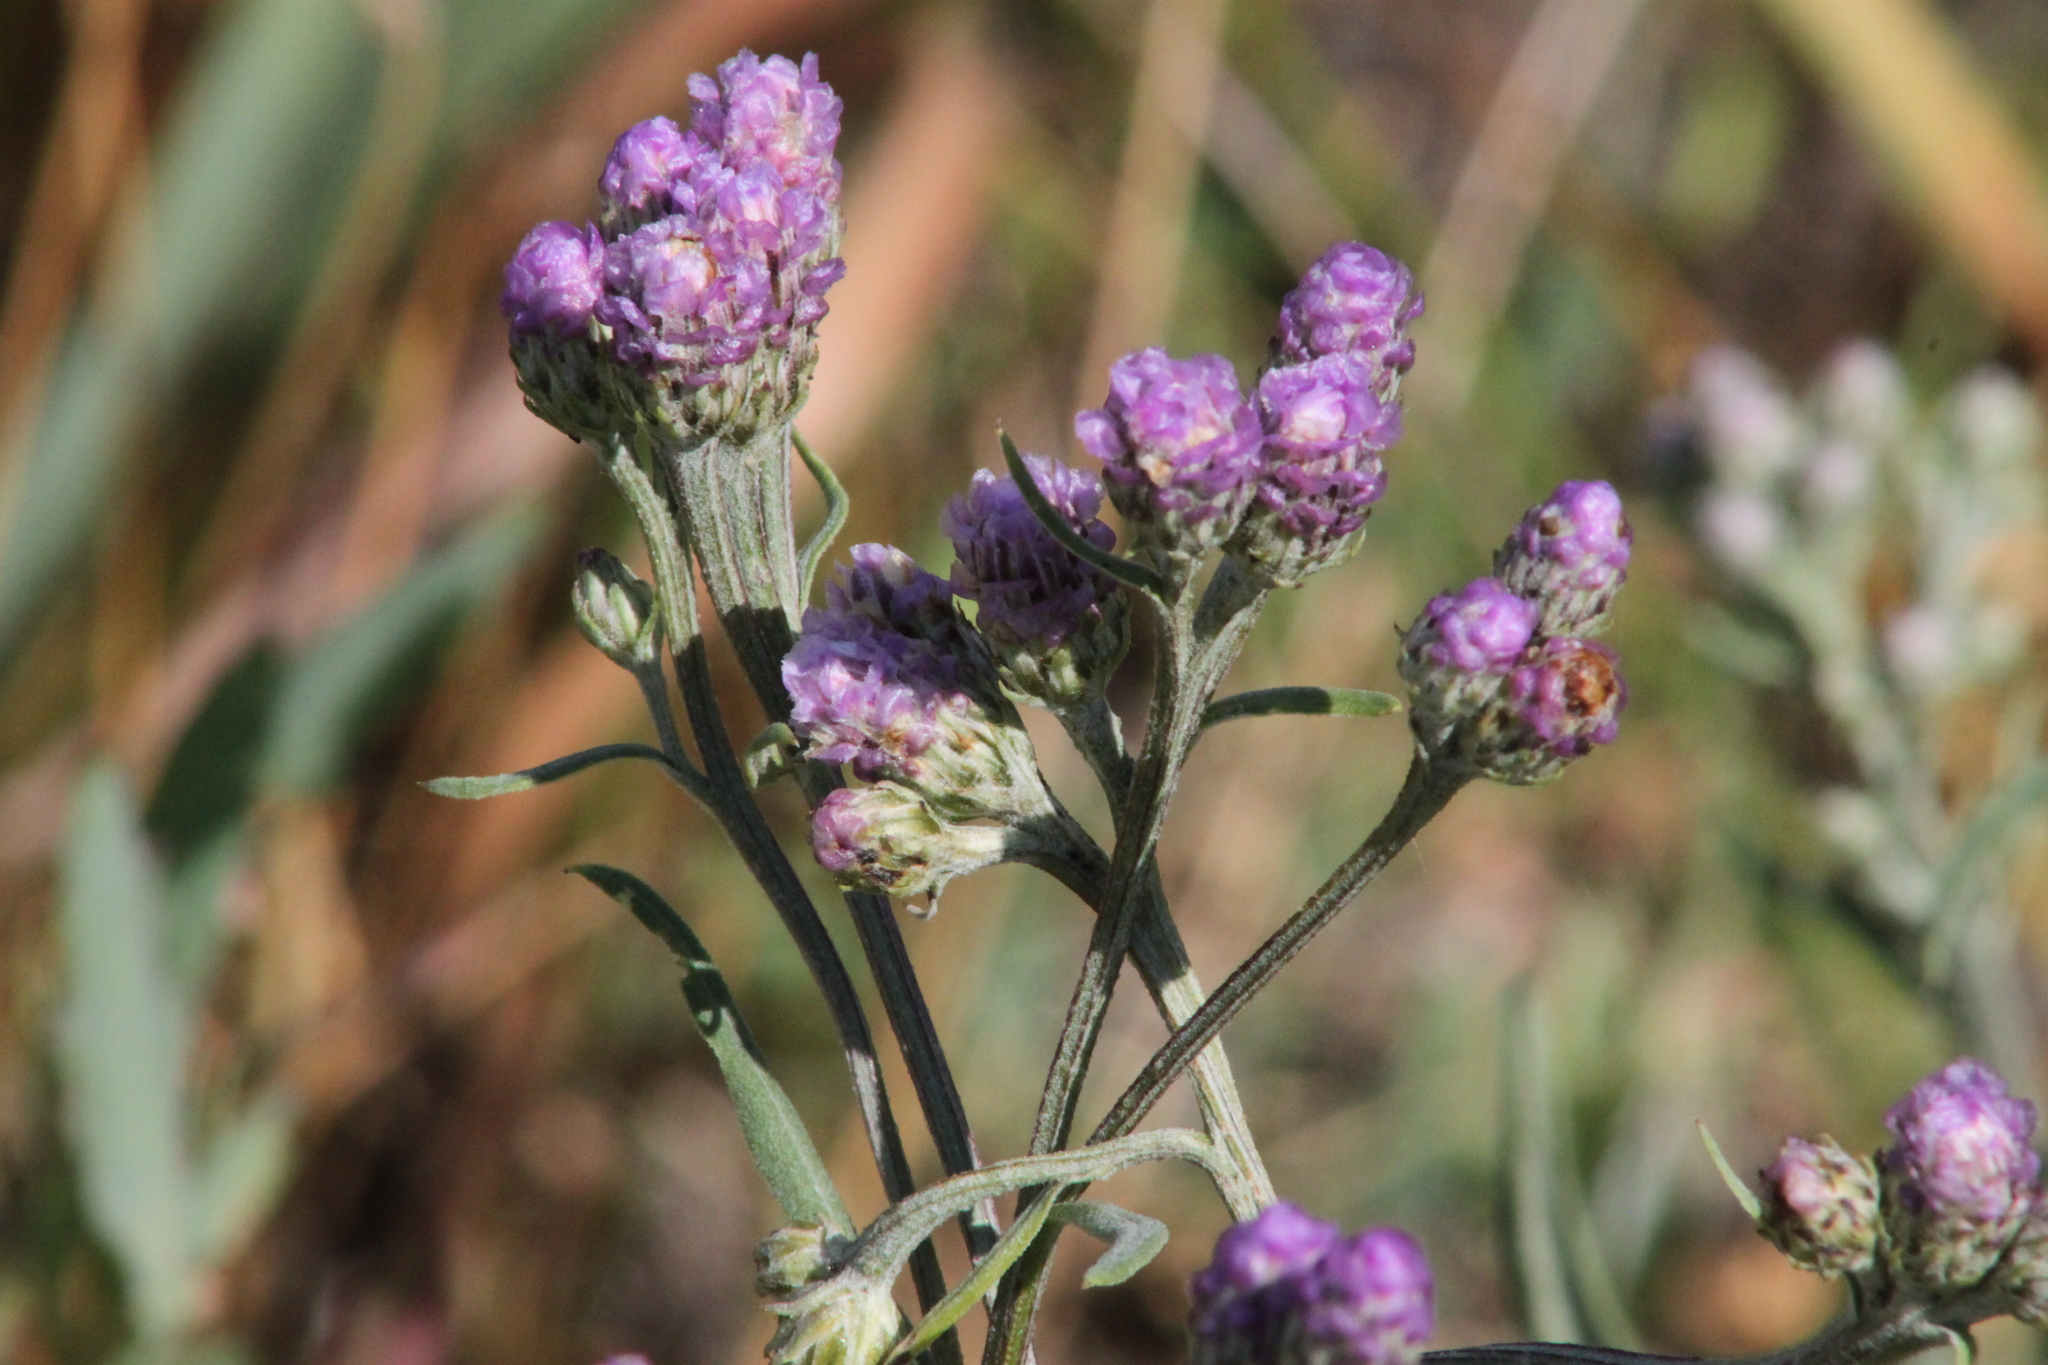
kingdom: Plantae
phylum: Tracheophyta
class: Magnoliopsida
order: Asterales
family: Asteraceae
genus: Saussurea
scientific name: Saussurea amara
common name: Alberta sawwort
